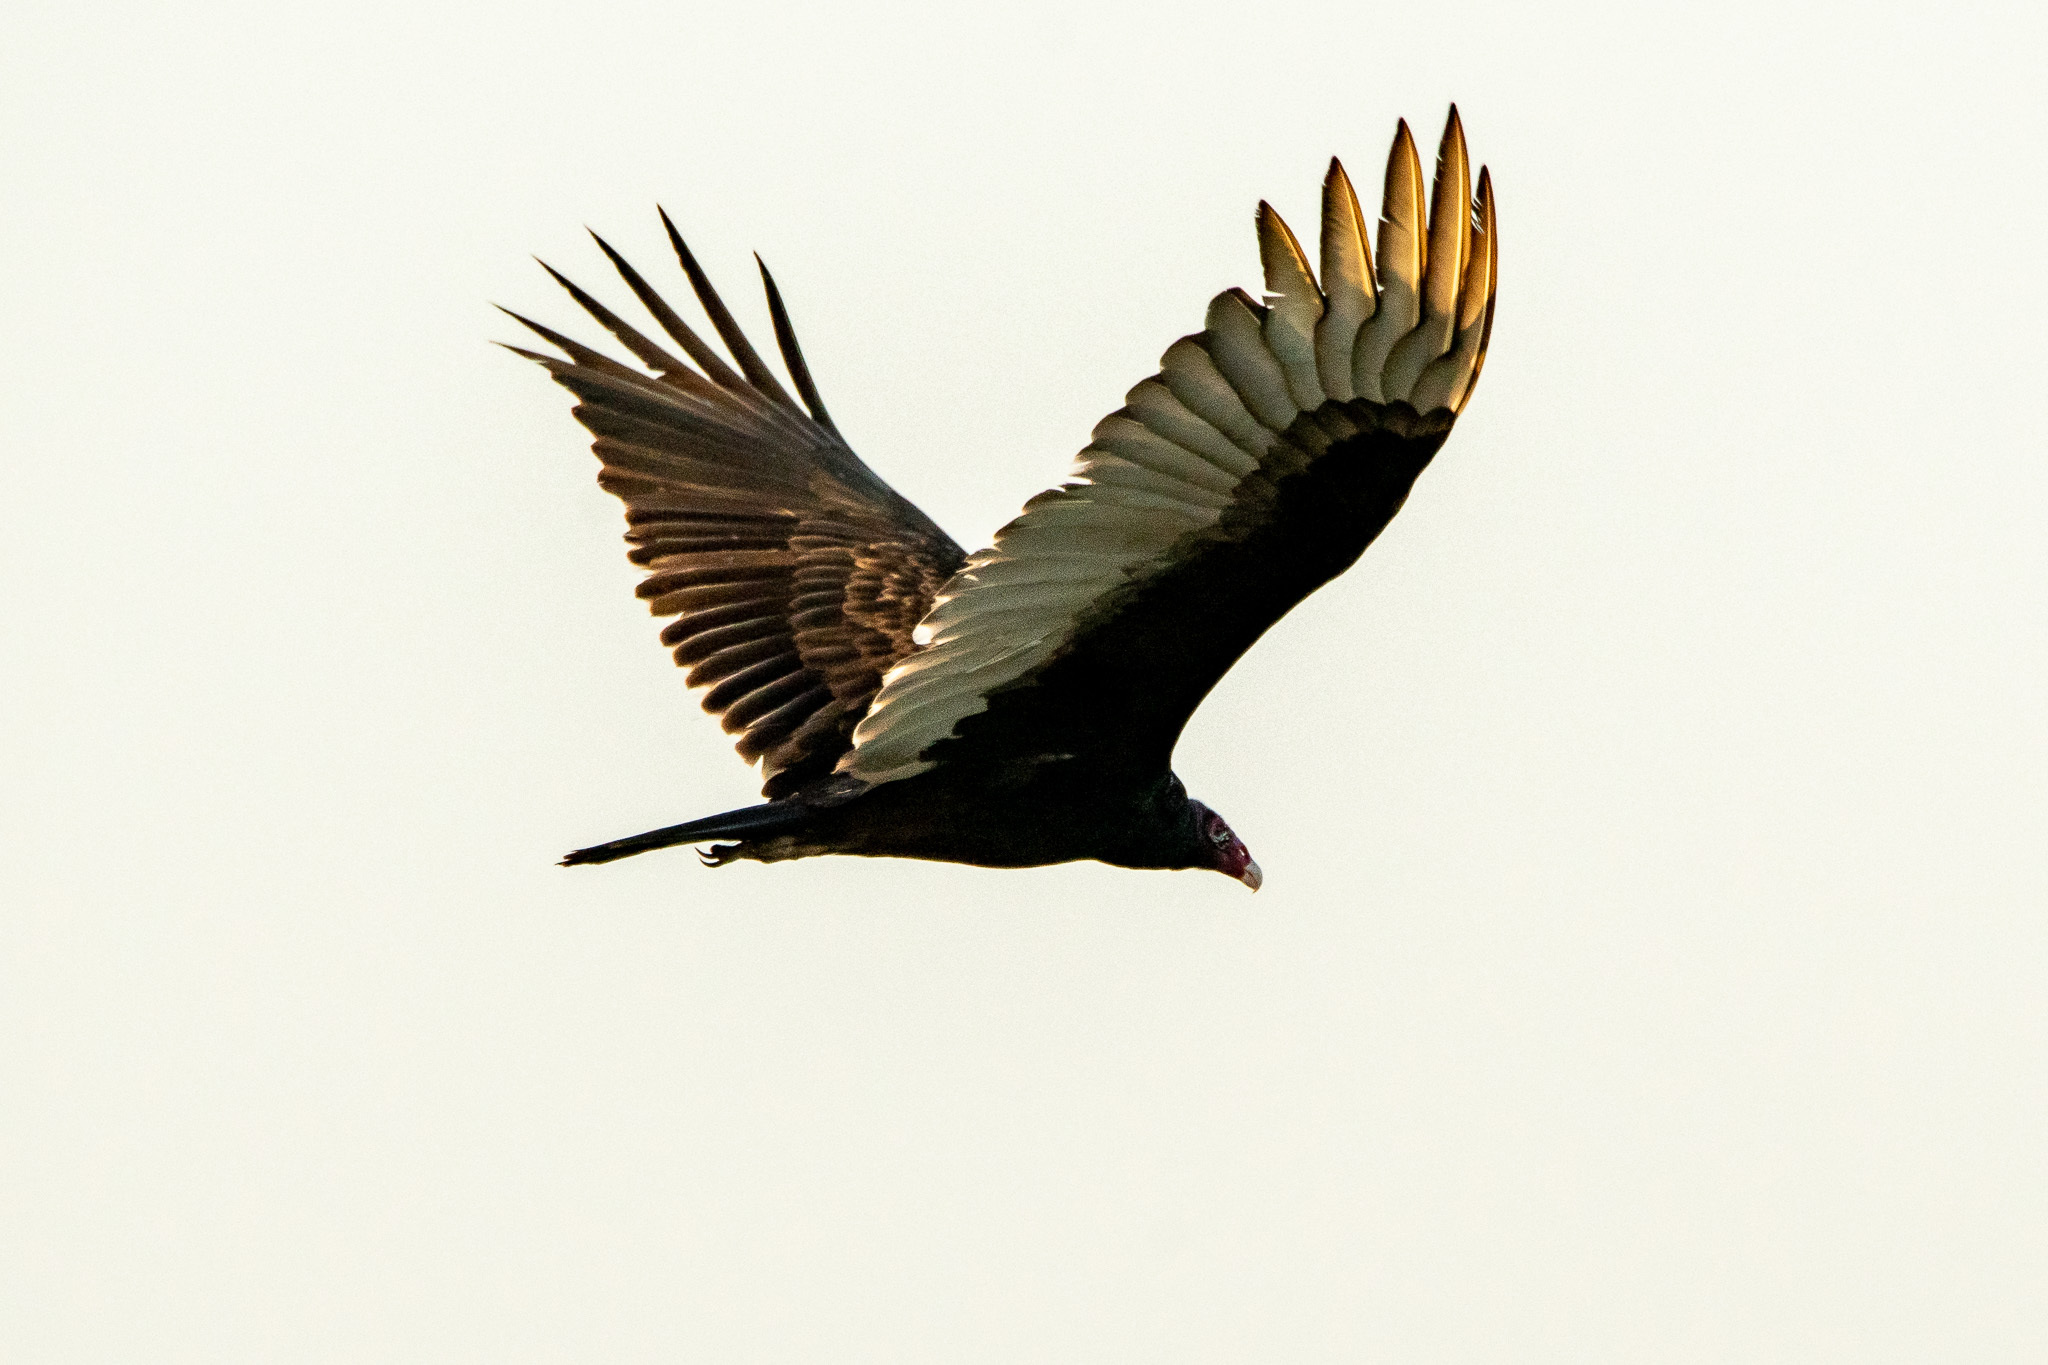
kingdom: Animalia
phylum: Chordata
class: Aves
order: Accipitriformes
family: Cathartidae
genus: Cathartes
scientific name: Cathartes aura
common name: Turkey vulture
